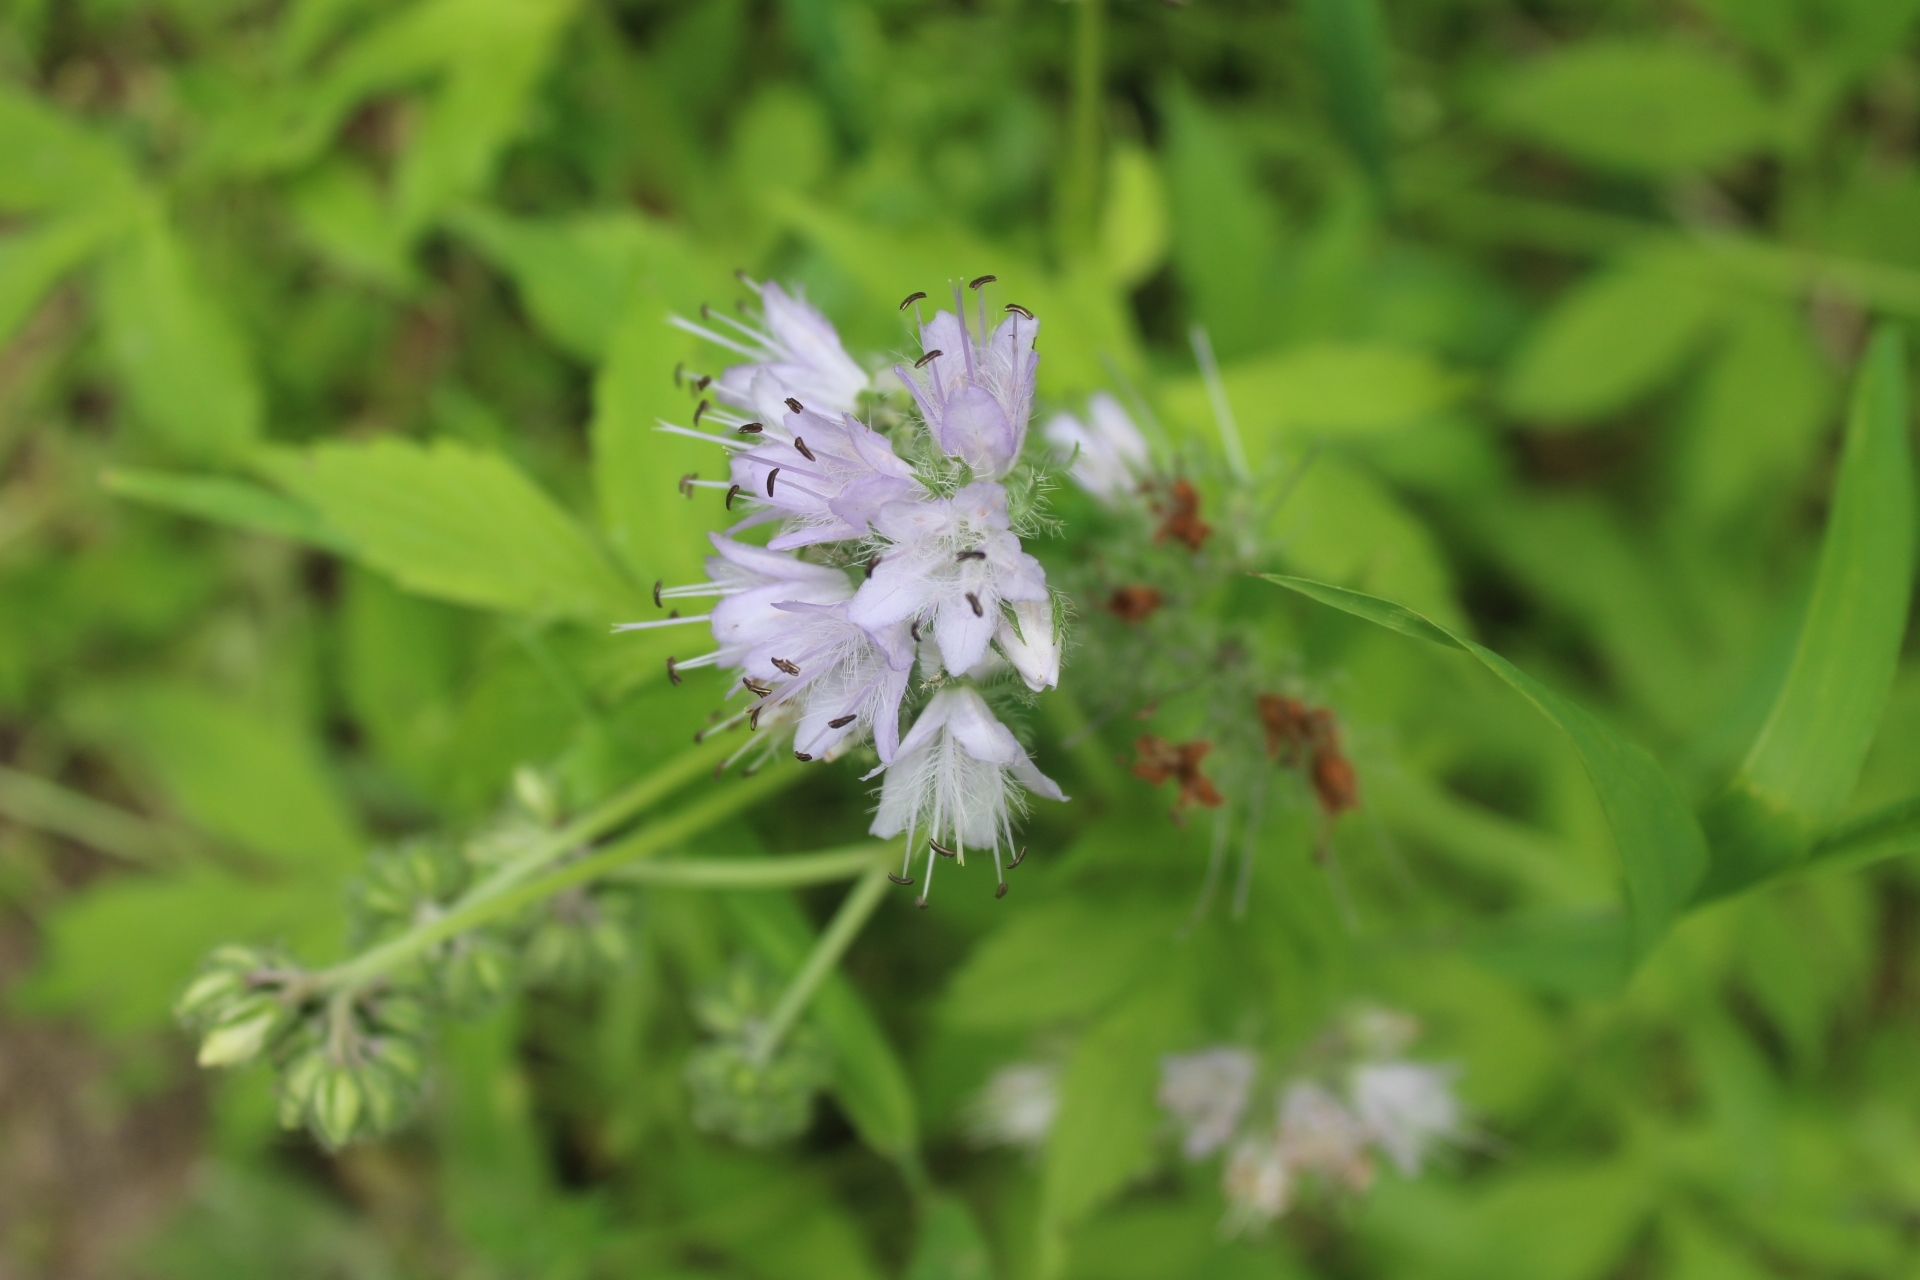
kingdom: Plantae
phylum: Tracheophyta
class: Magnoliopsida
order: Boraginales
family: Hydrophyllaceae
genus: Hydrophyllum
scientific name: Hydrophyllum virginianum
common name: Virginia waterleaf
